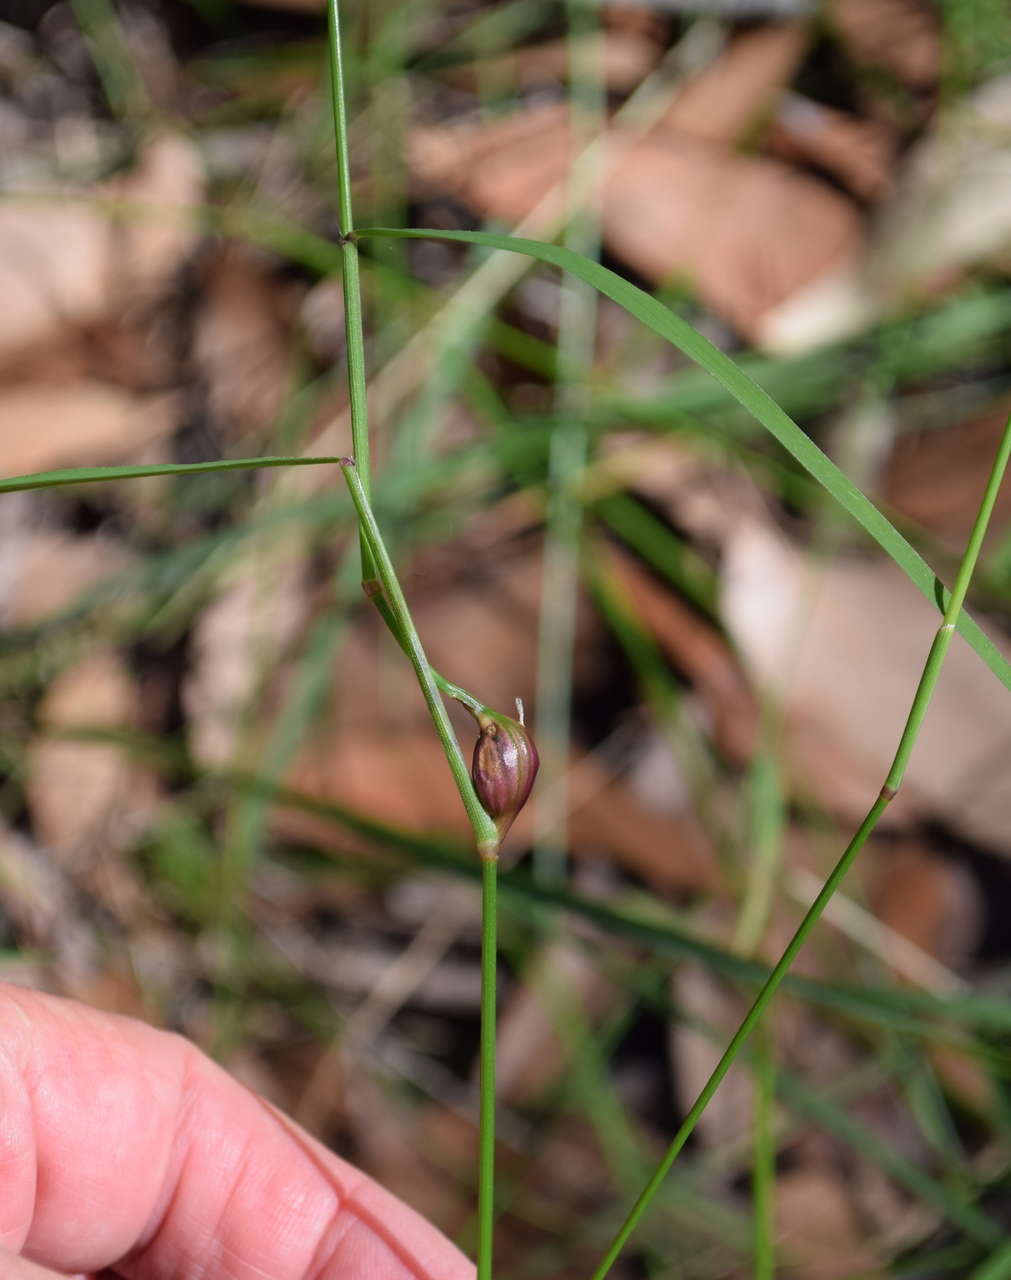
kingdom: Plantae
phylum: Tracheophyta
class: Liliopsida
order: Poales
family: Poaceae
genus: Tetrarrhena
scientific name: Tetrarrhena juncea
